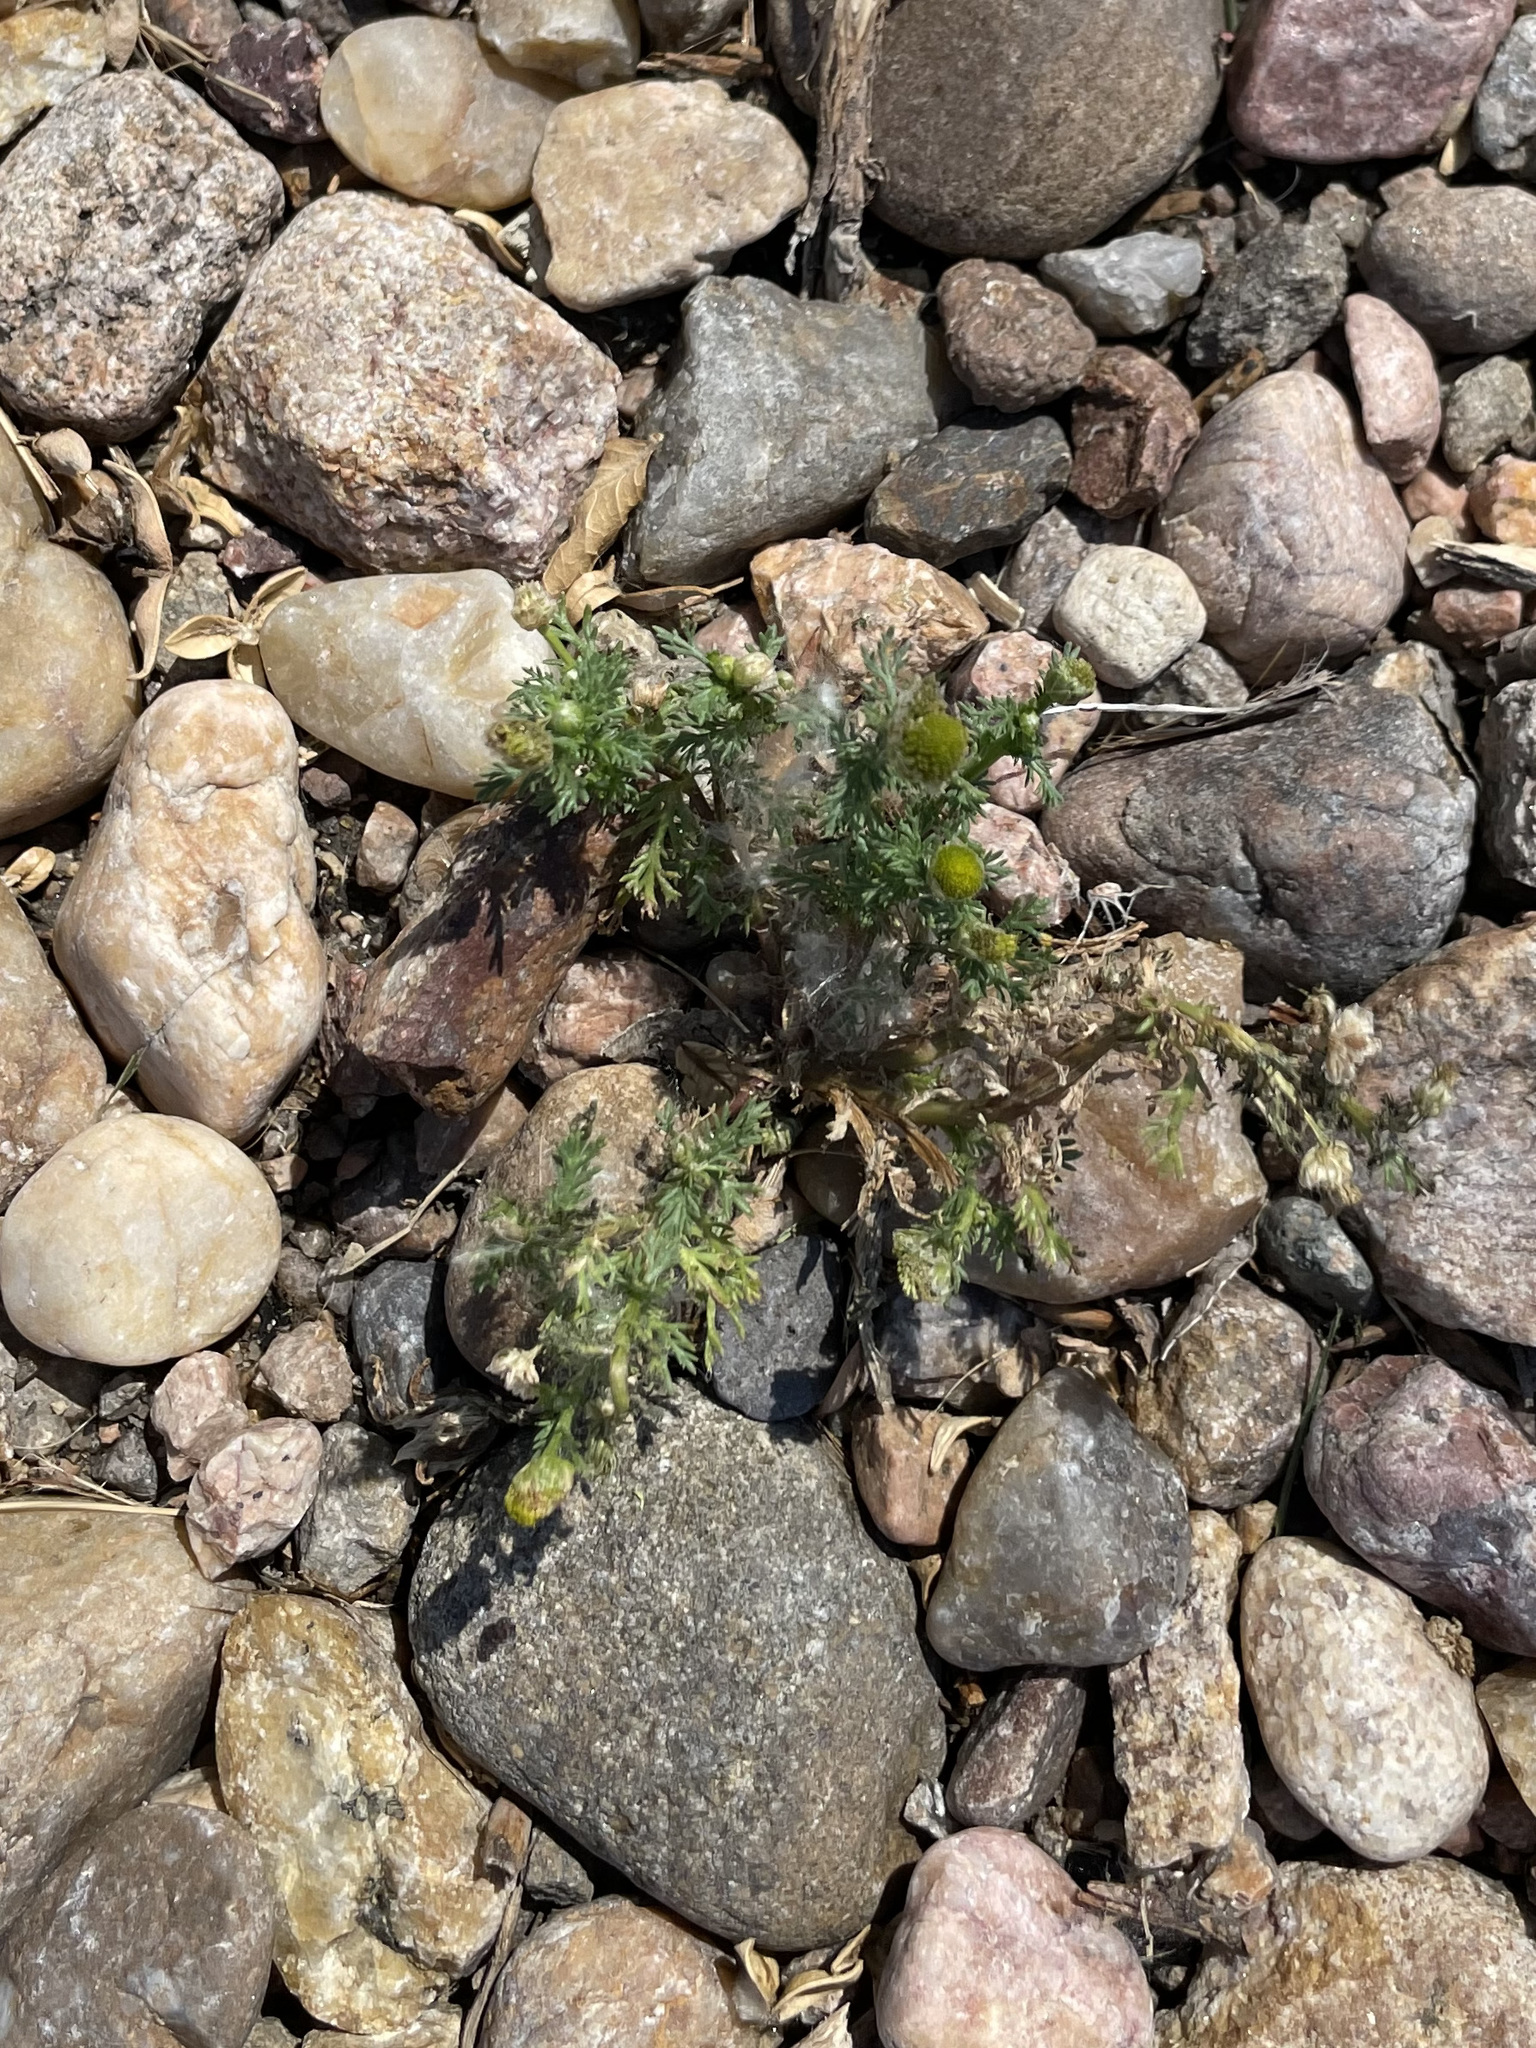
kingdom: Plantae
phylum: Tracheophyta
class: Magnoliopsida
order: Asterales
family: Asteraceae
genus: Matricaria
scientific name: Matricaria discoidea
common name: Disc mayweed
